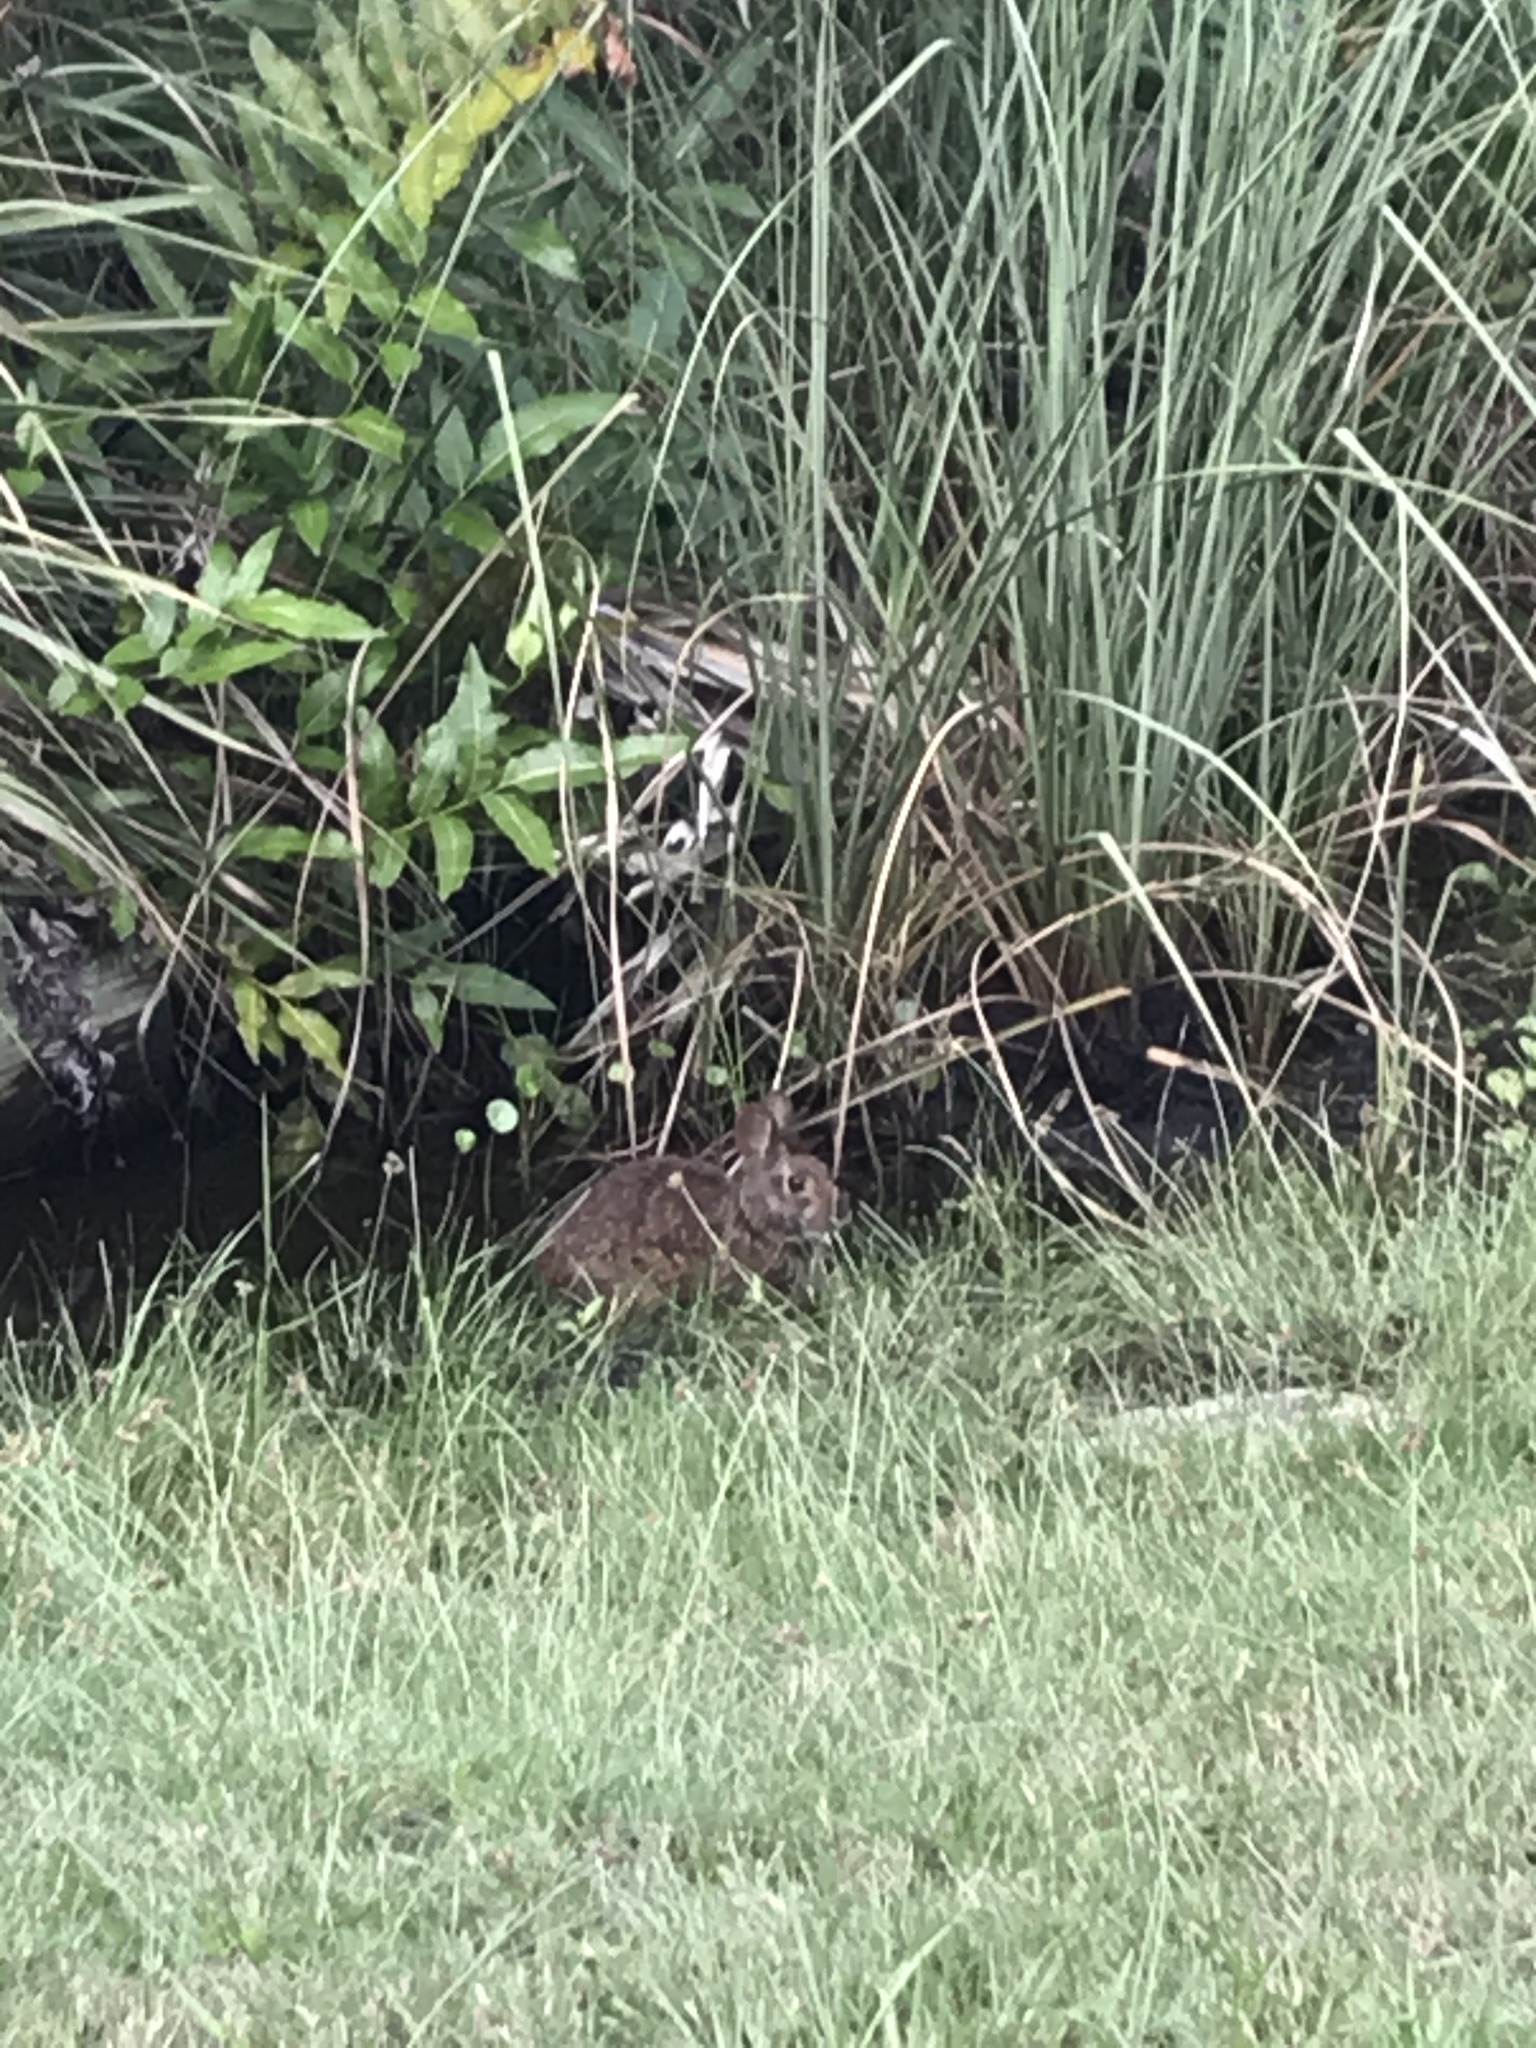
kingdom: Animalia
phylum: Chordata
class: Mammalia
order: Lagomorpha
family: Leporidae
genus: Sylvilagus
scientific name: Sylvilagus palustris
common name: Marsh rabbit
